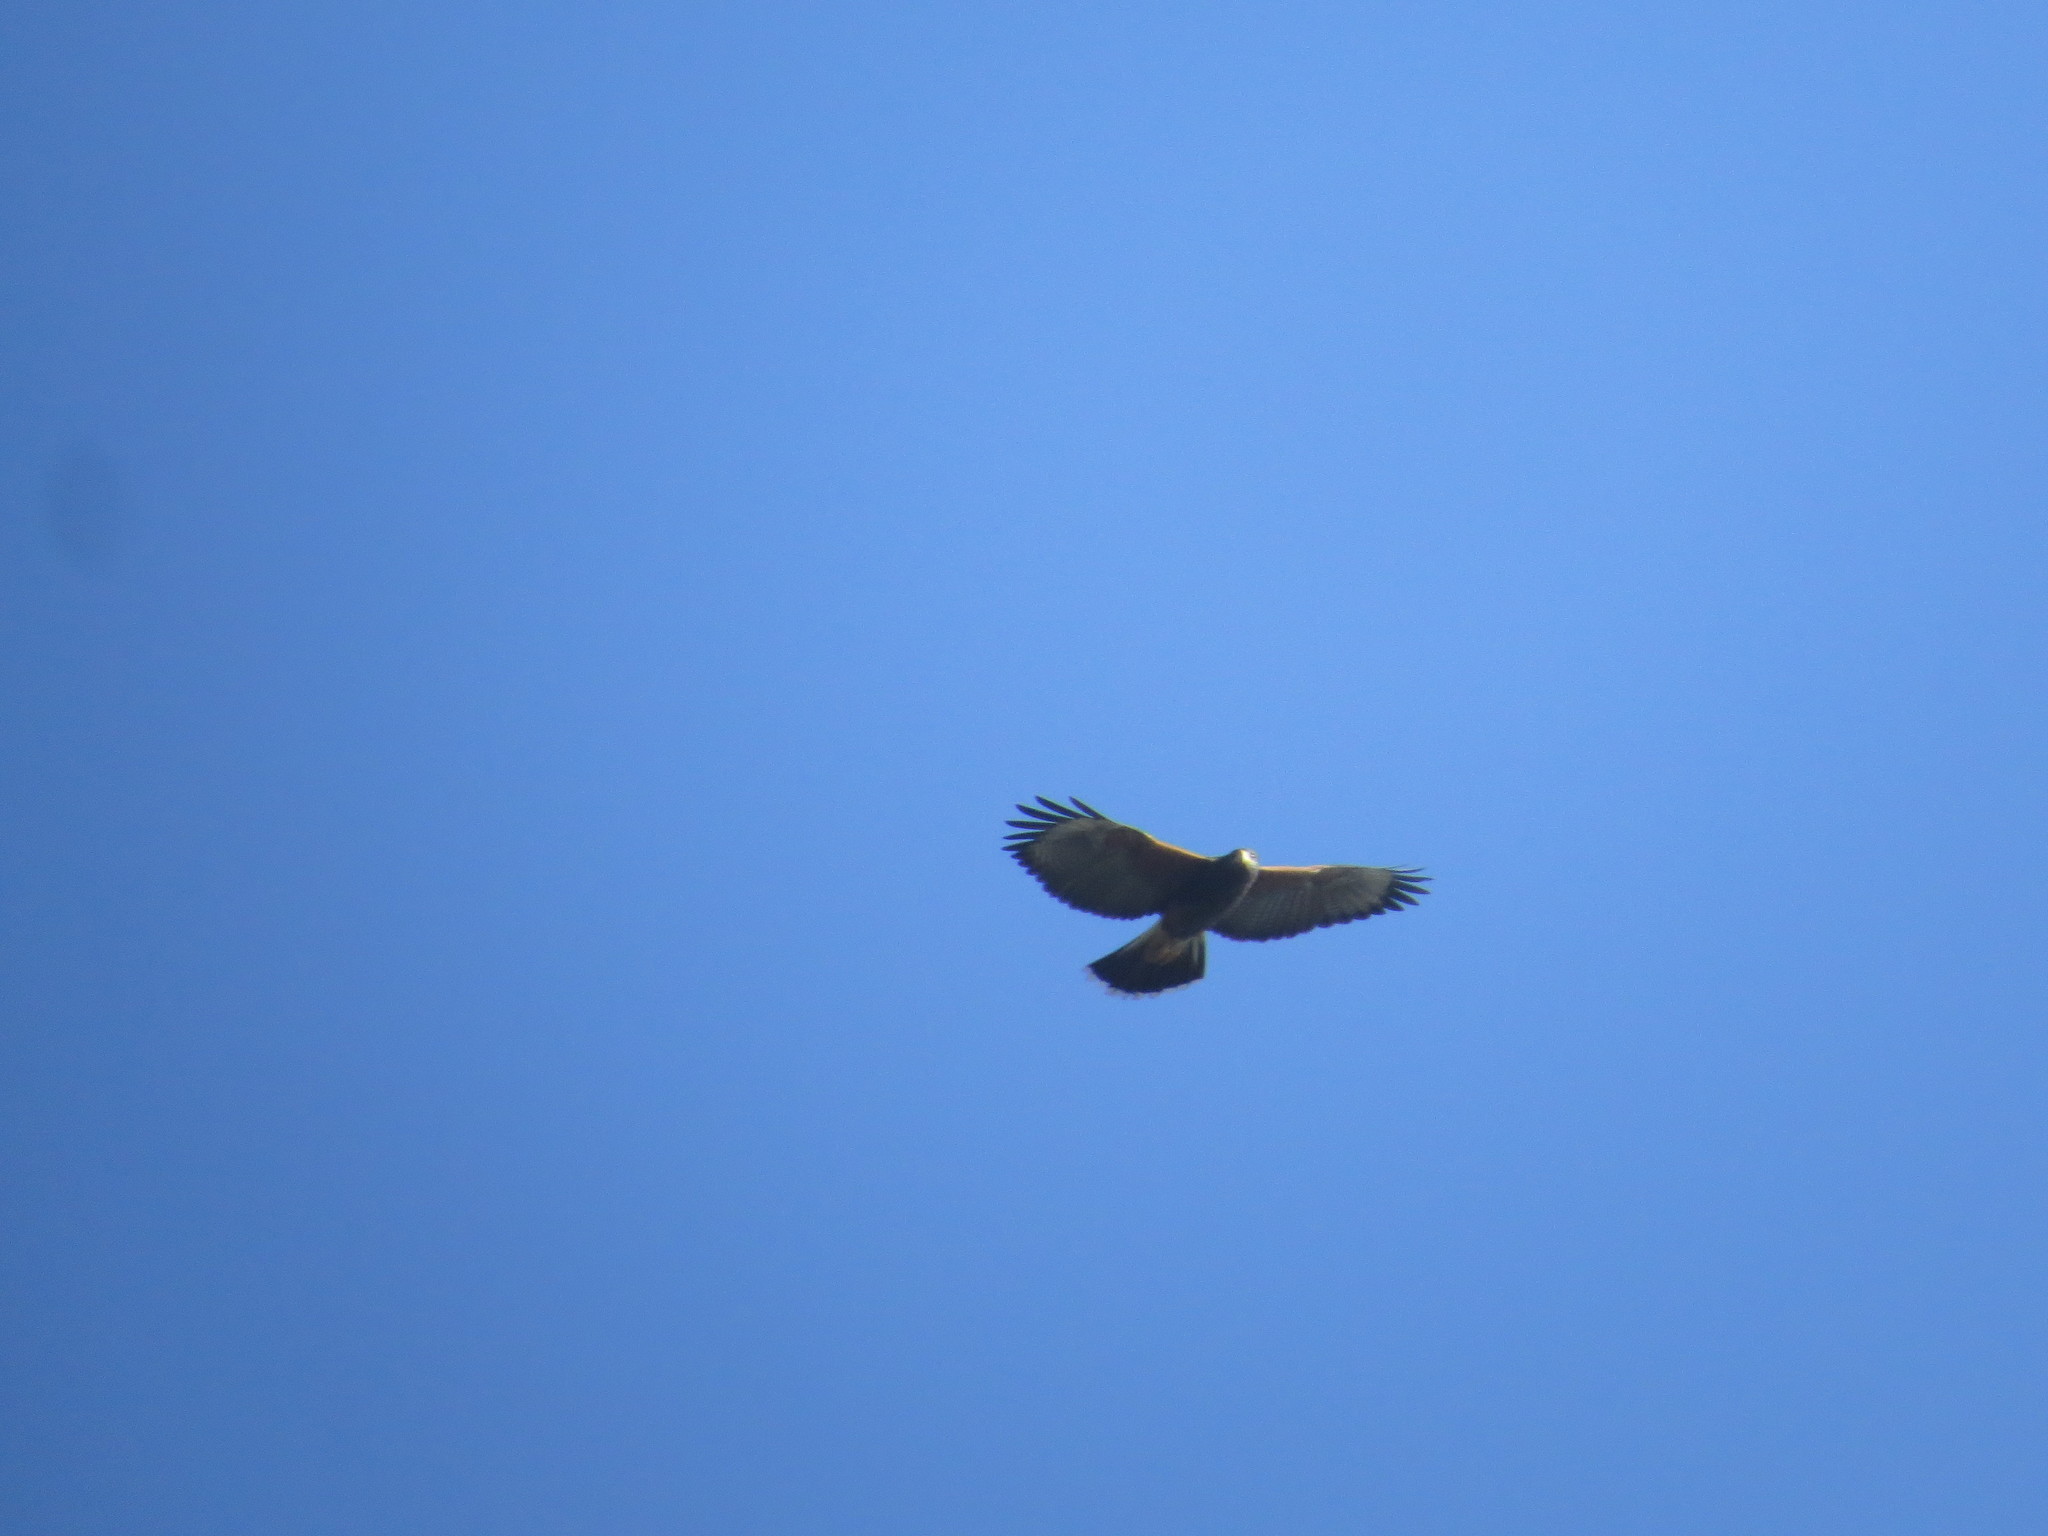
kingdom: Animalia
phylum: Chordata
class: Aves
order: Accipitriformes
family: Accipitridae
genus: Parabuteo
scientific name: Parabuteo unicinctus
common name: Harris's hawk
